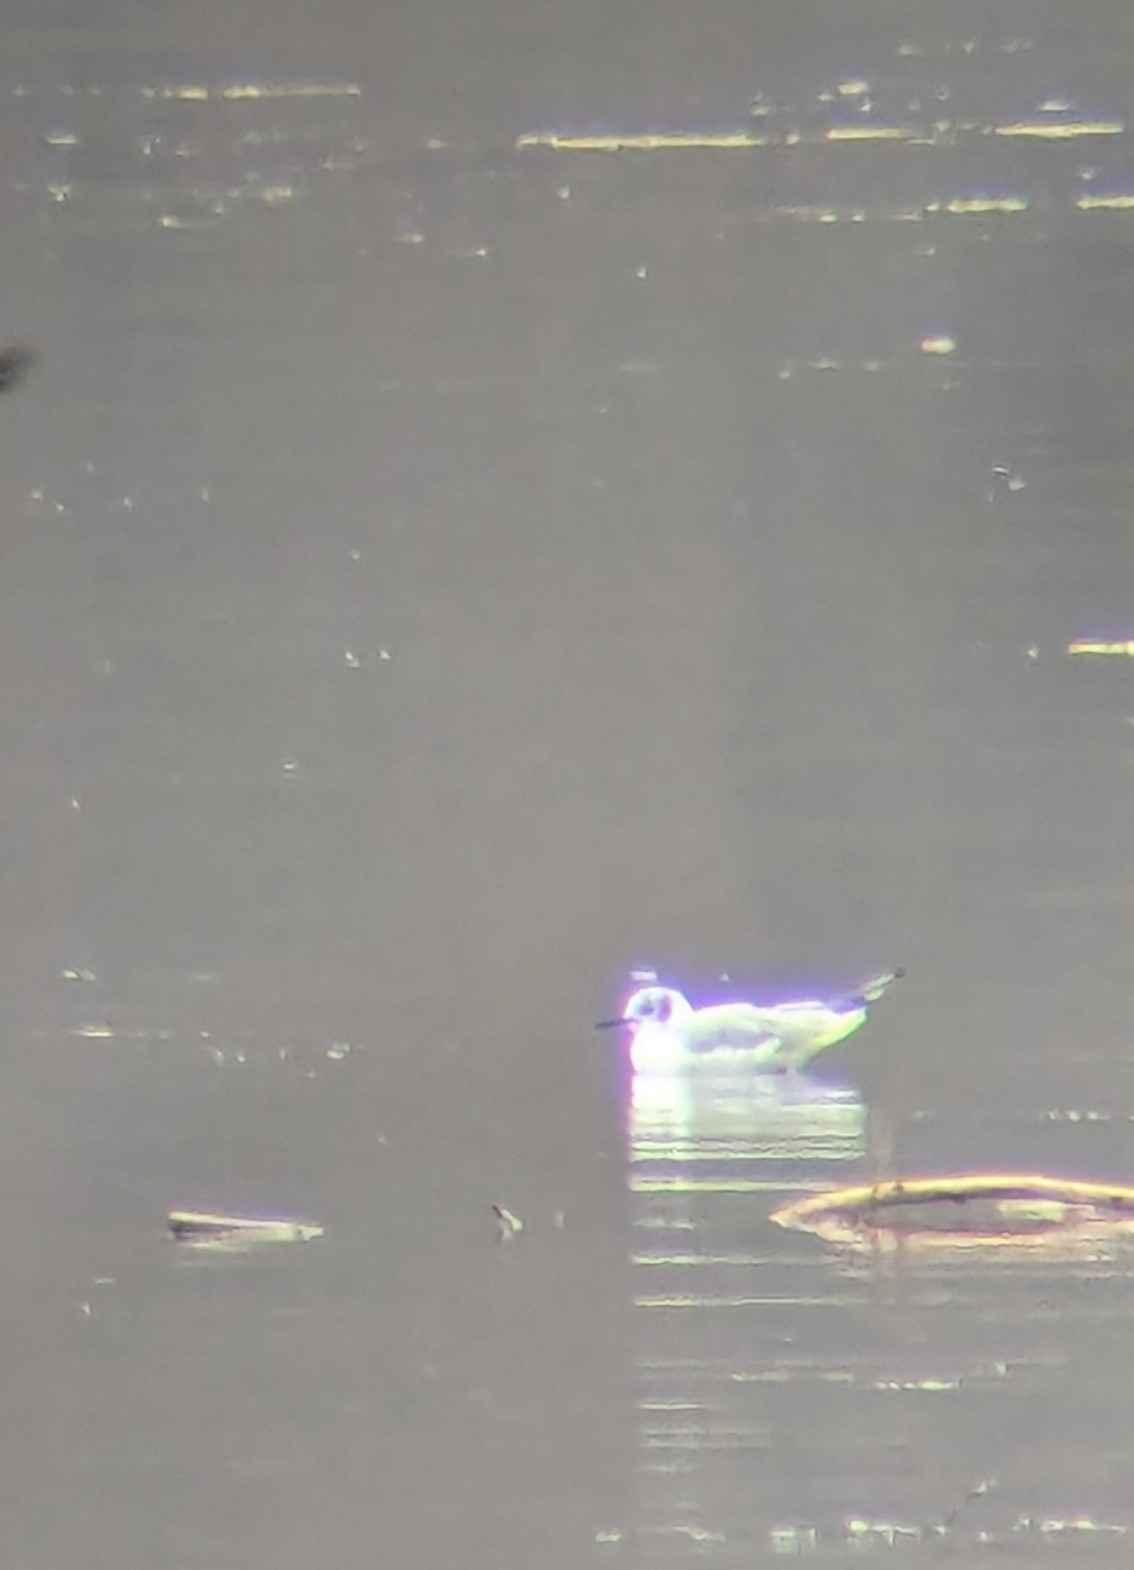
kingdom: Animalia
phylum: Chordata
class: Aves
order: Charadriiformes
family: Laridae
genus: Chroicocephalus
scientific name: Chroicocephalus philadelphia
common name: Bonaparte's gull
